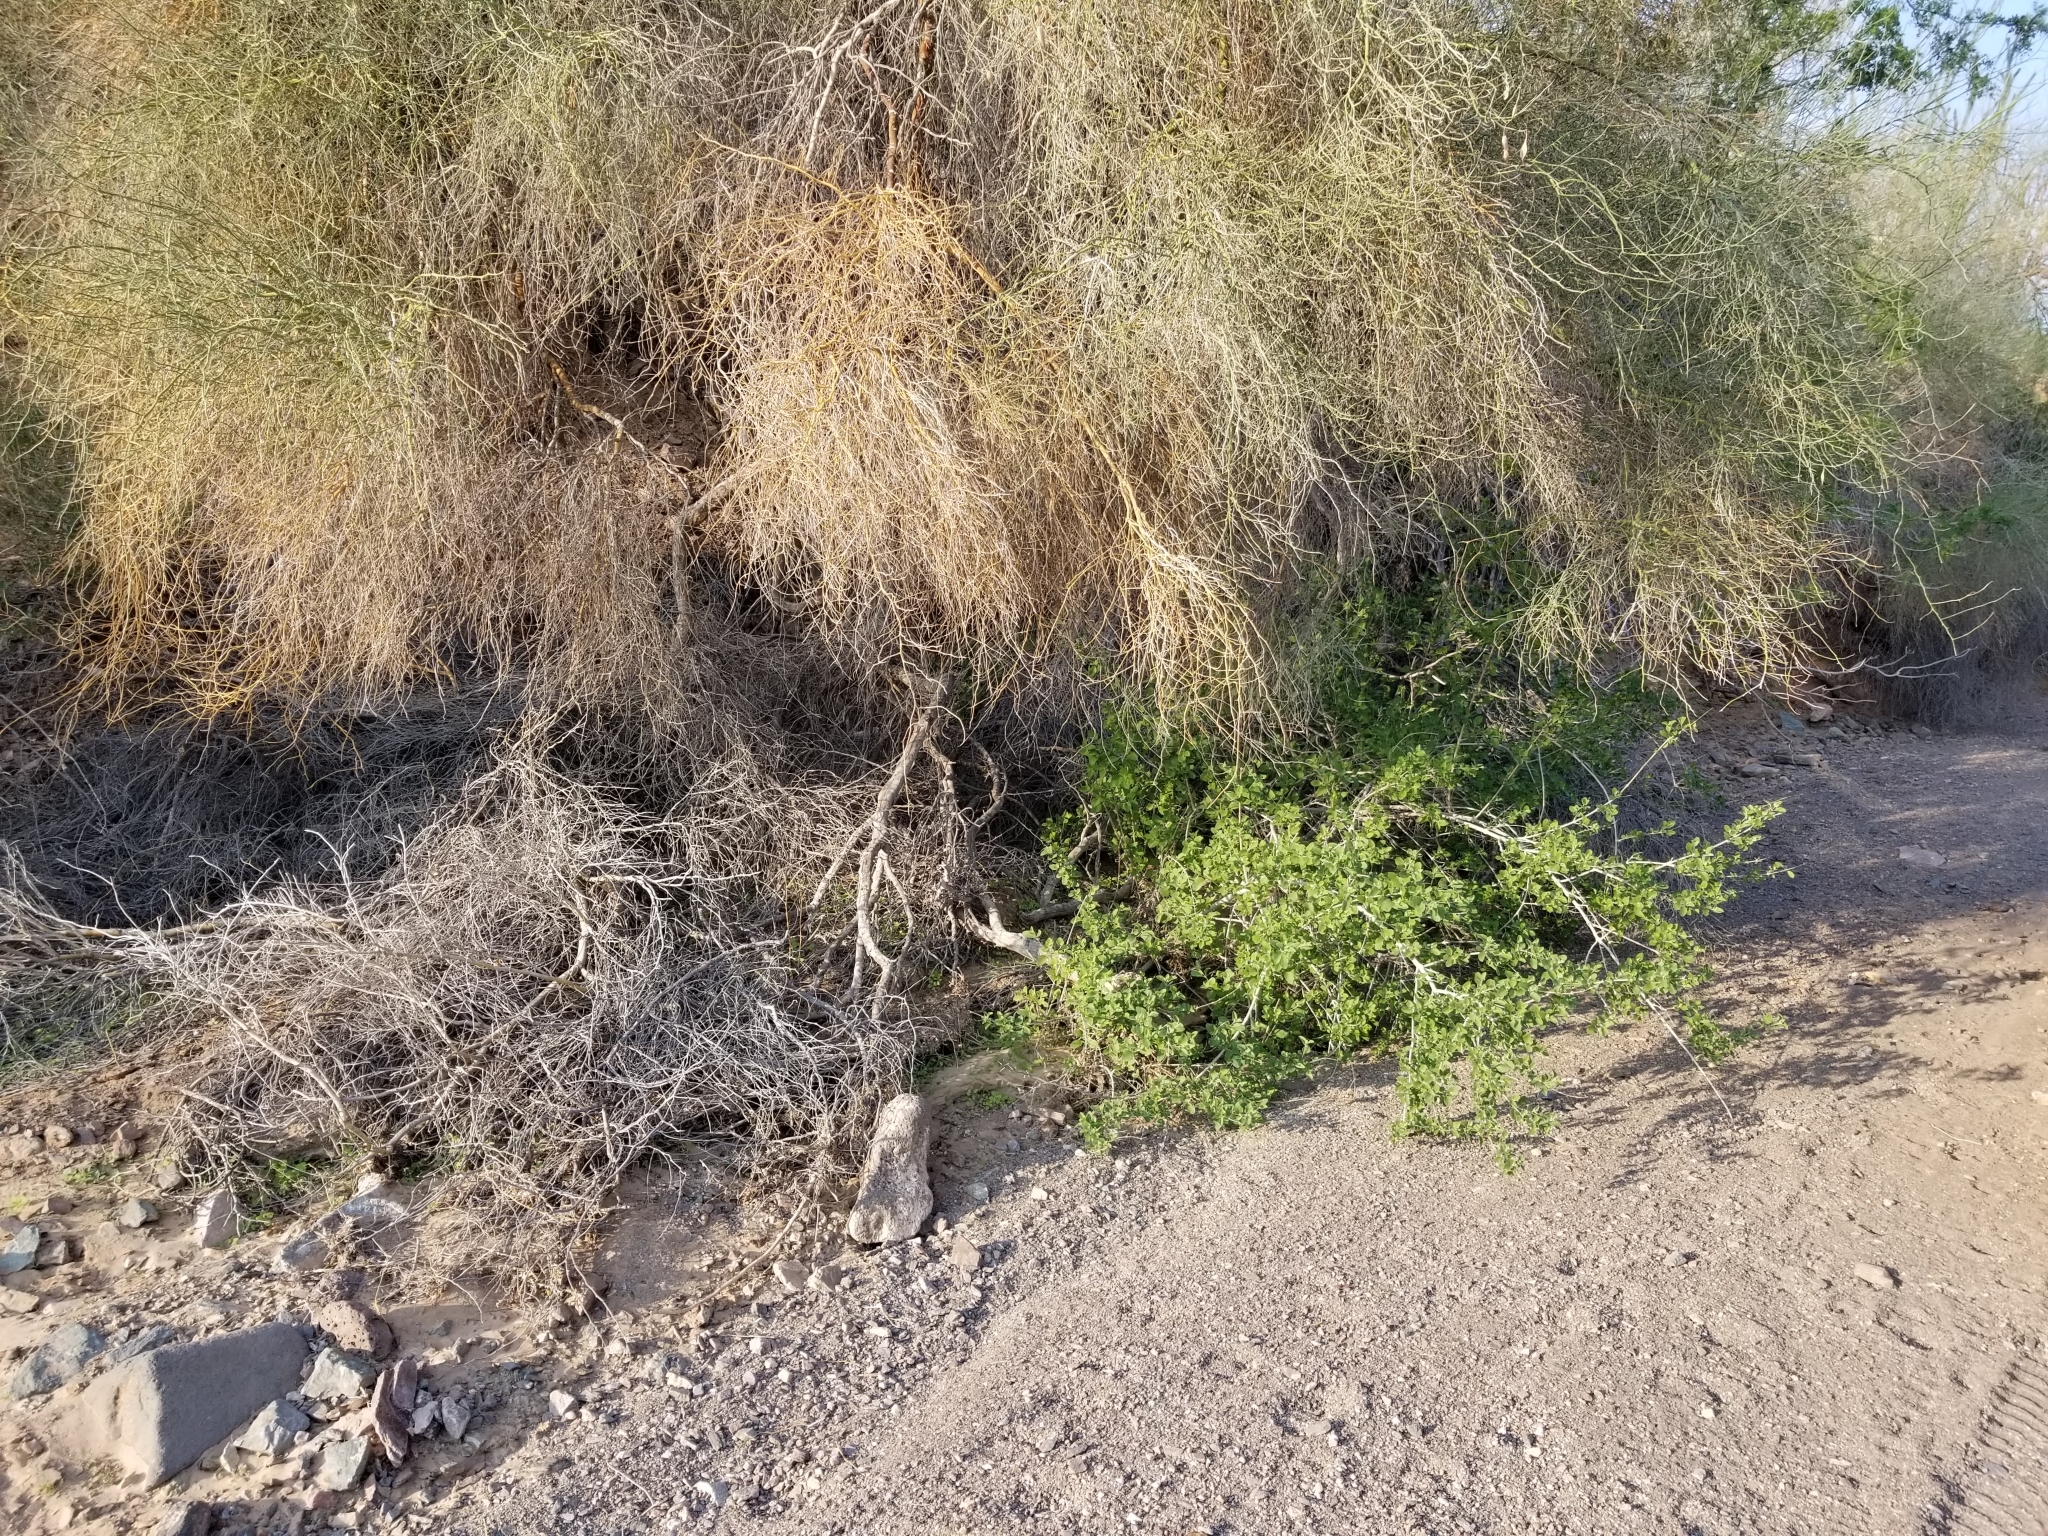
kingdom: Plantae
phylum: Tracheophyta
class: Magnoliopsida
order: Lamiales
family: Lamiaceae
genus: Condea
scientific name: Condea emoryi
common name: Chia
